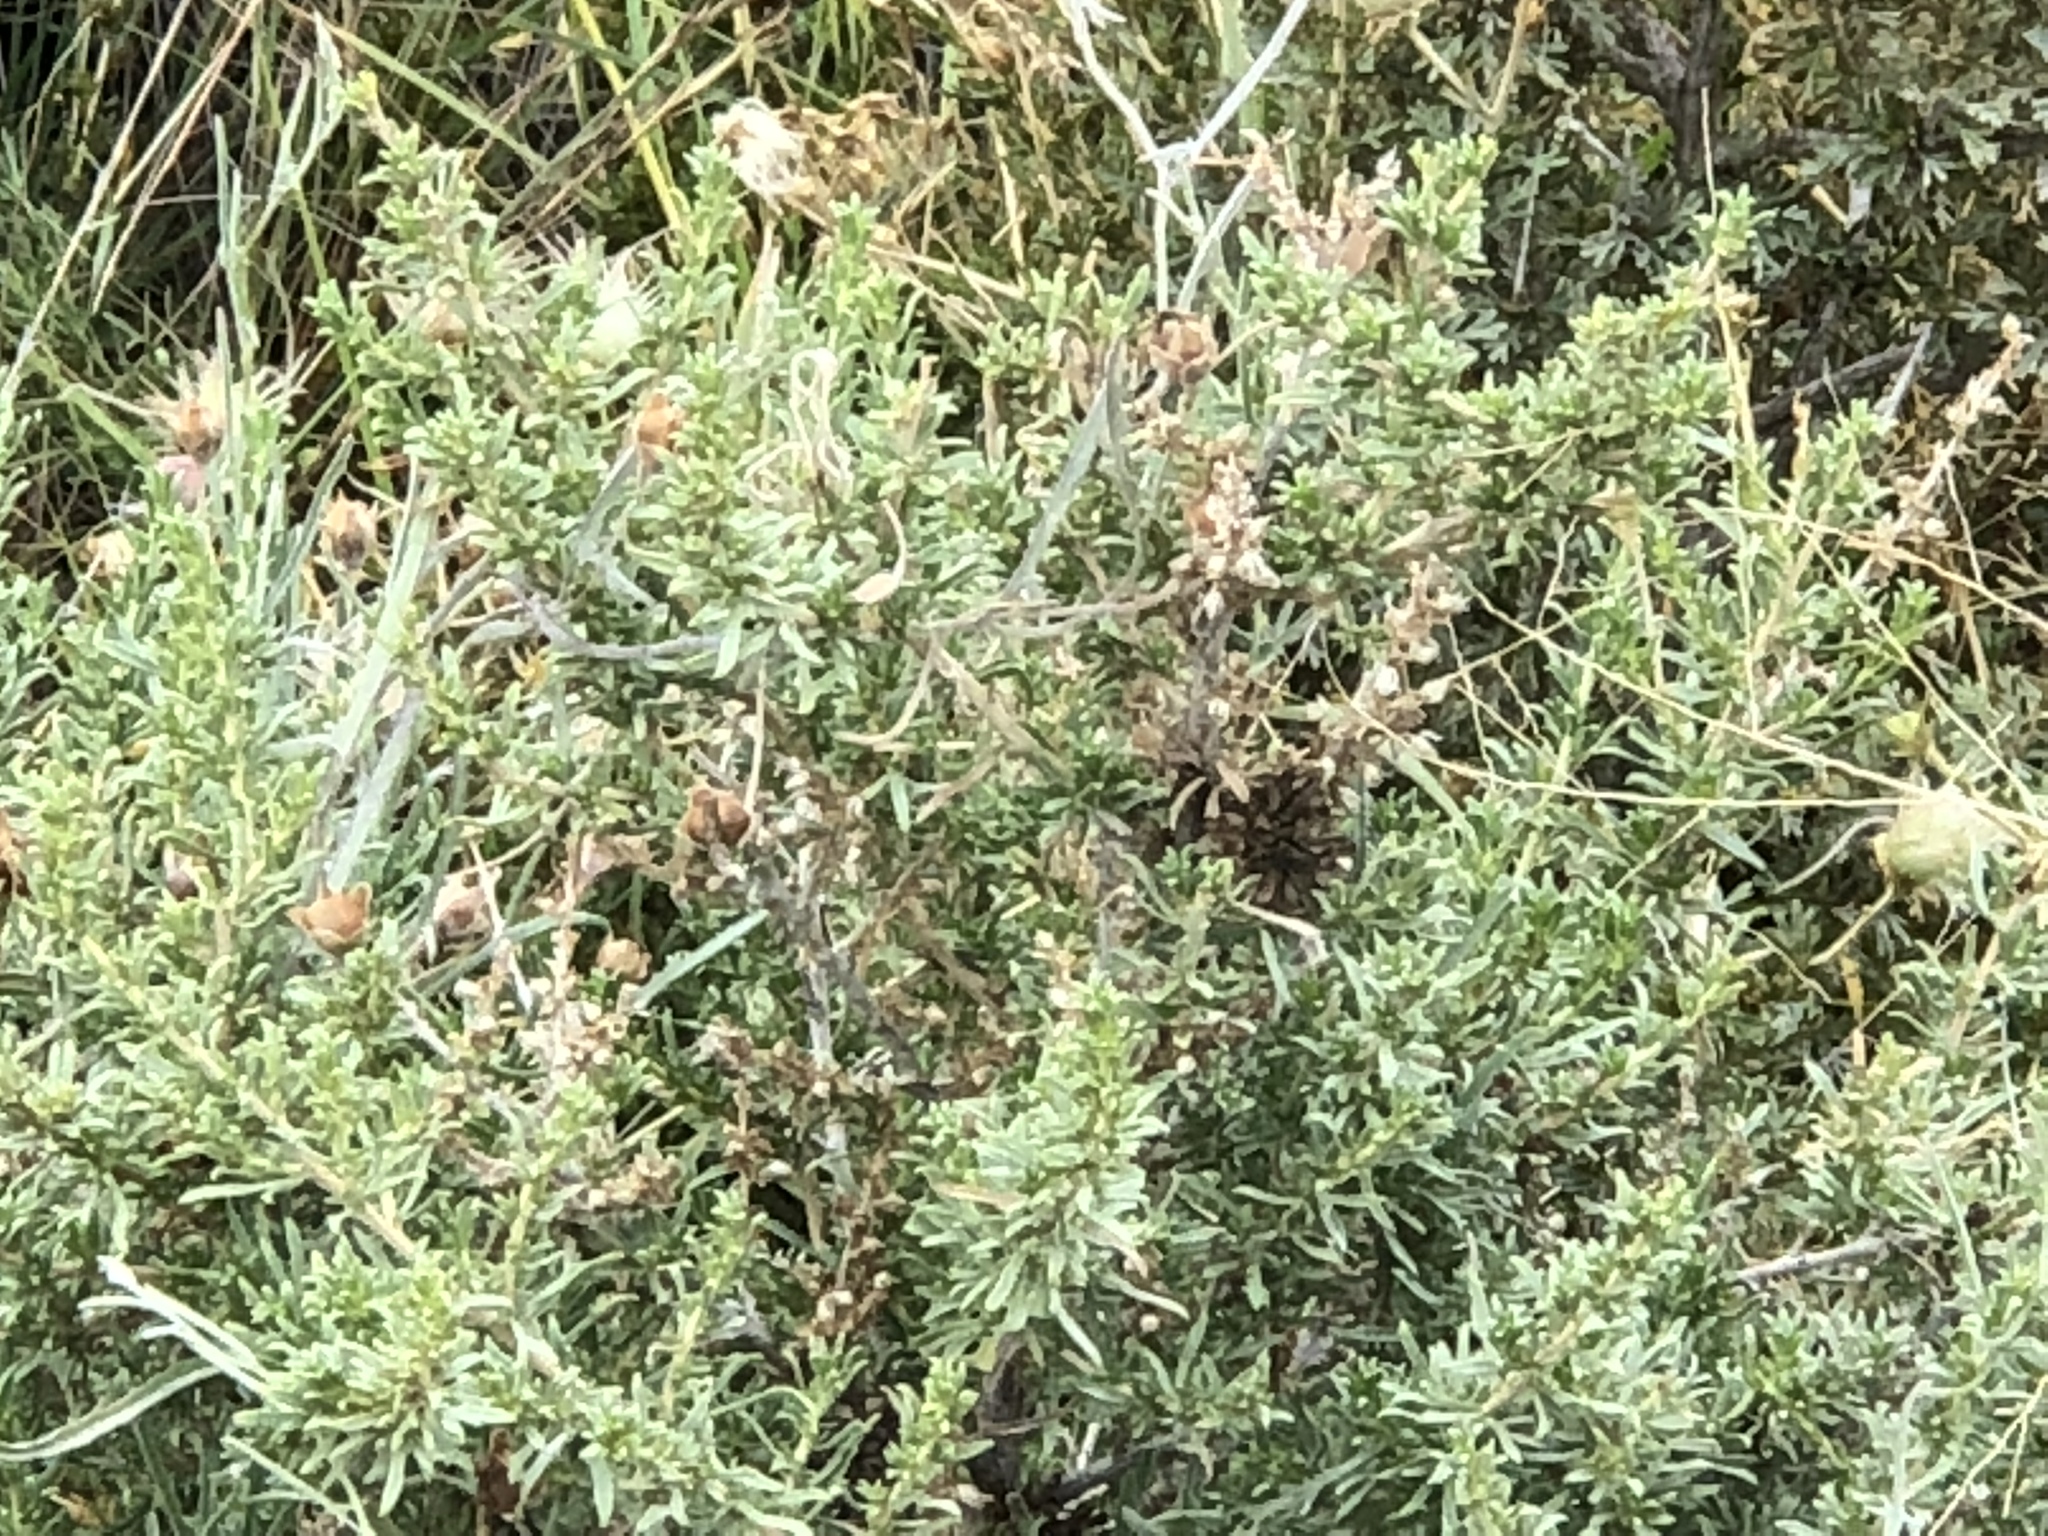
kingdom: Plantae
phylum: Tracheophyta
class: Magnoliopsida
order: Caryophyllales
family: Amaranthaceae
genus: Atriplex
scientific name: Atriplex canescens
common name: Four-wing saltbush
